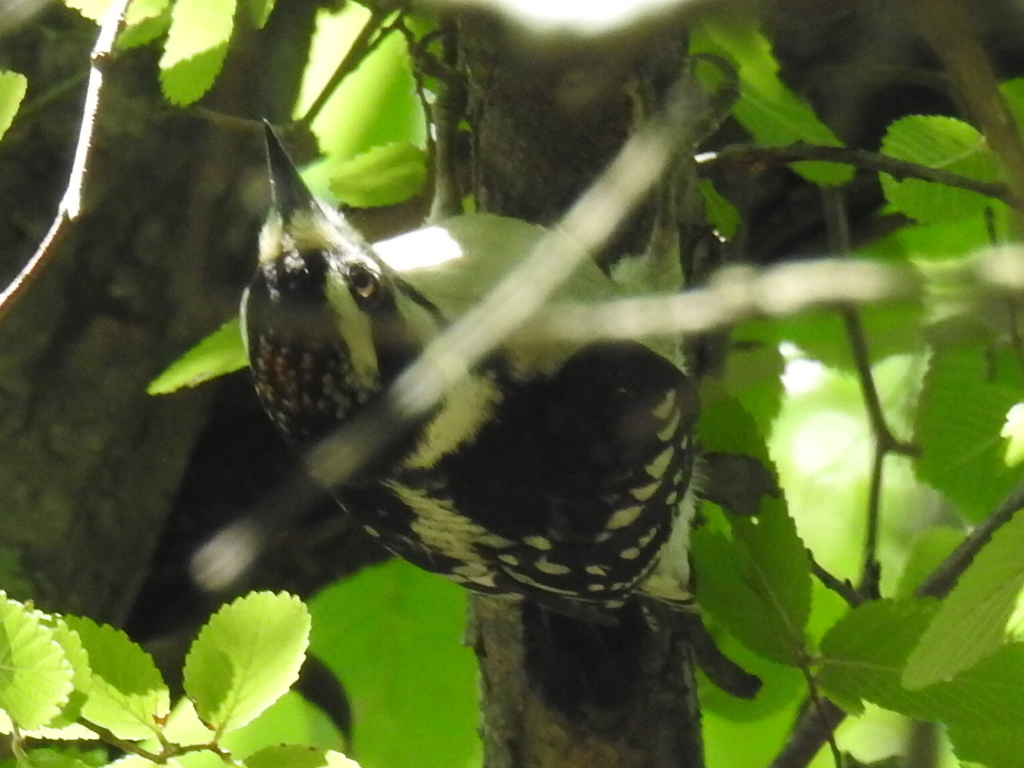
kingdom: Animalia
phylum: Chordata
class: Aves
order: Piciformes
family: Picidae
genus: Dryobates
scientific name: Dryobates pubescens
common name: Downy woodpecker
